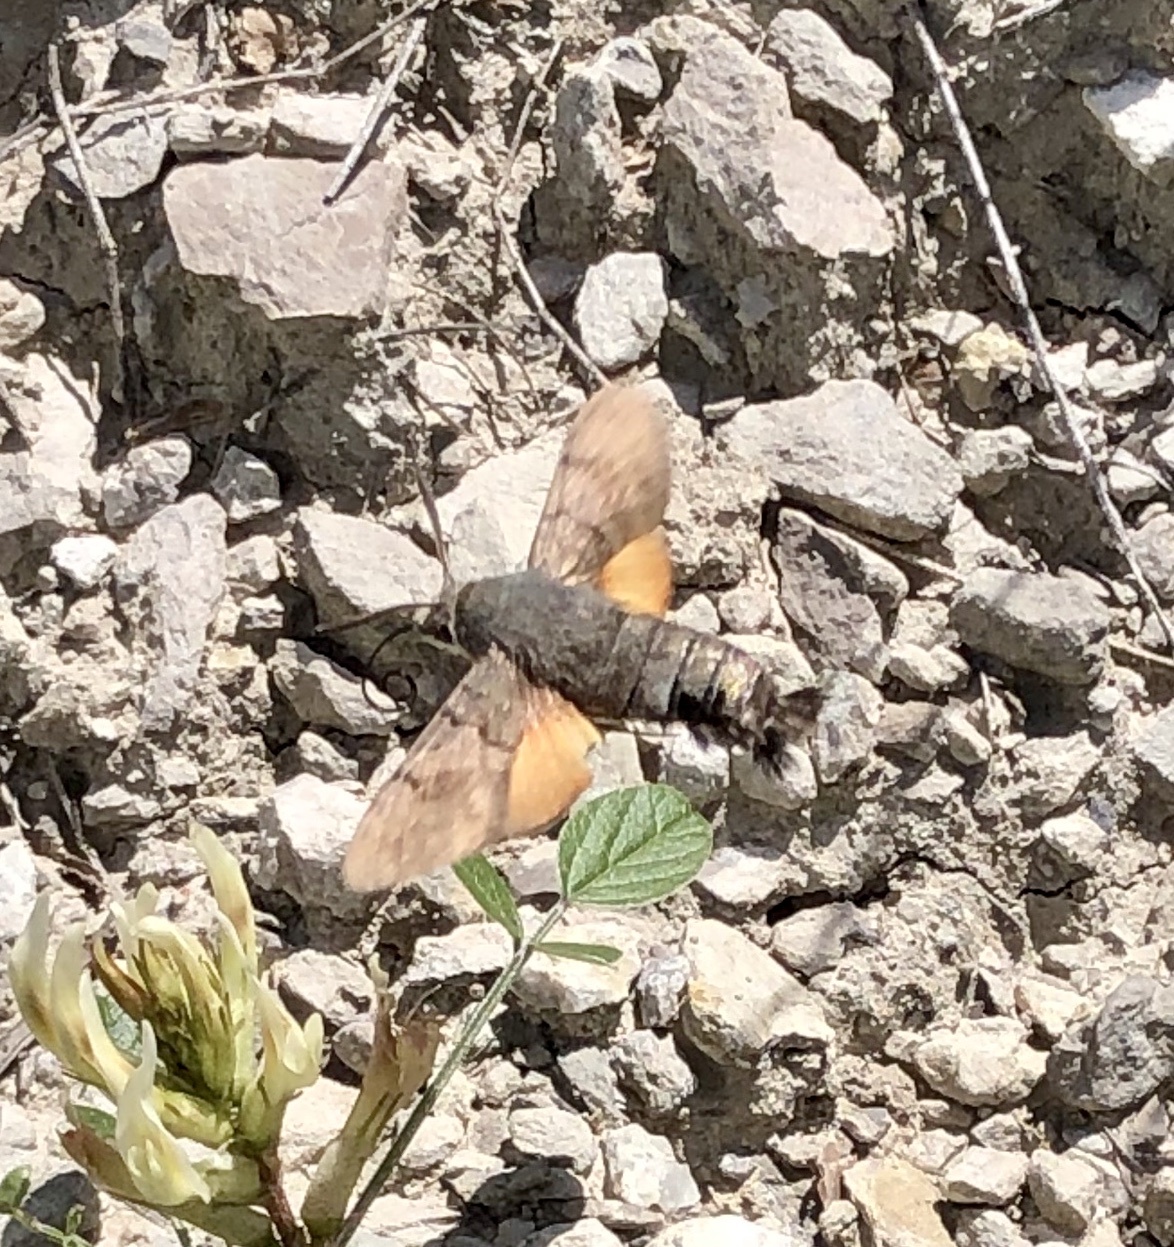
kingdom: Animalia
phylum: Arthropoda
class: Insecta
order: Lepidoptera
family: Sphingidae
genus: Macroglossum
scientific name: Macroglossum stellatarum
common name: Humming-bird hawk-moth
